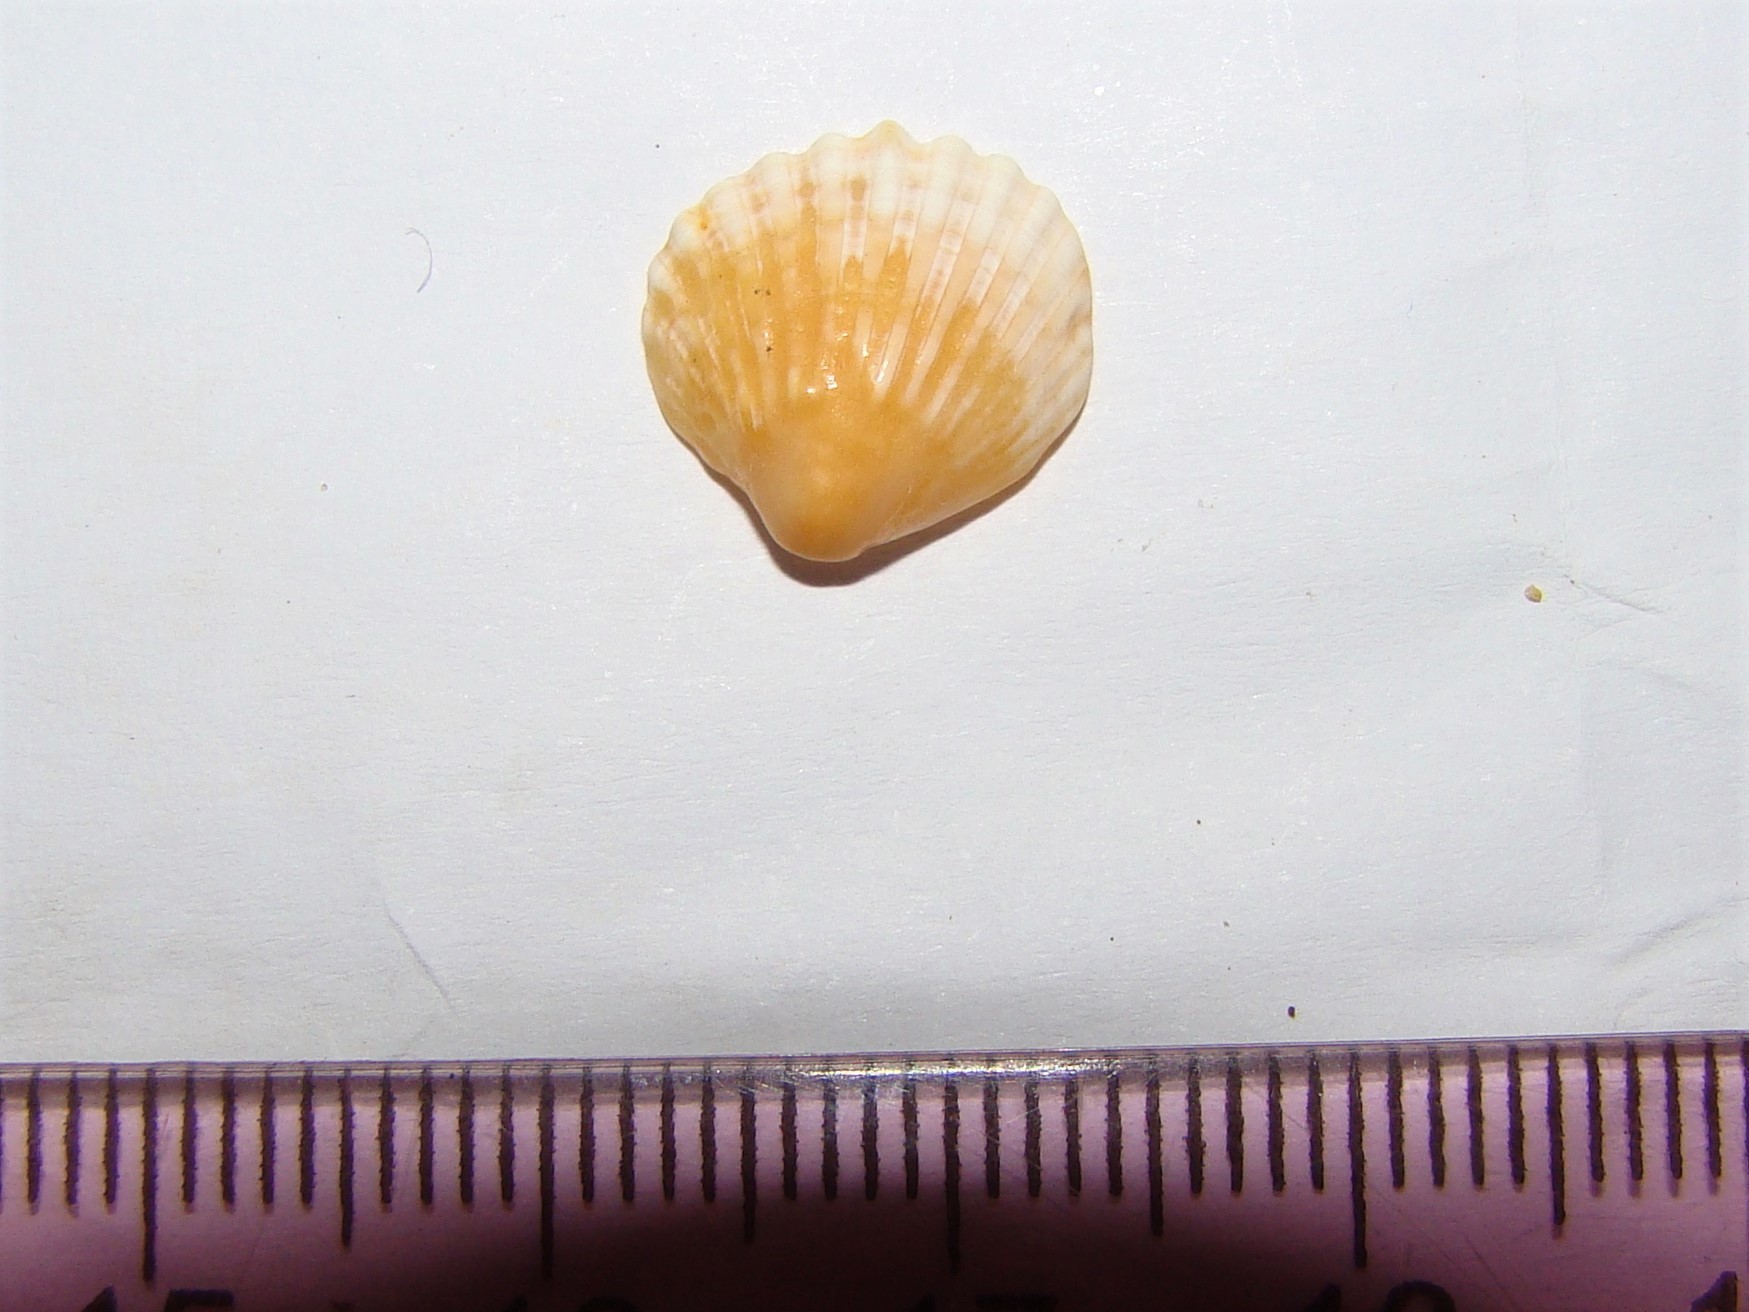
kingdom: Animalia
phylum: Mollusca
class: Bivalvia
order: Carditida
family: Carditidae
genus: Pleuromeris
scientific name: Pleuromeris zelandica
